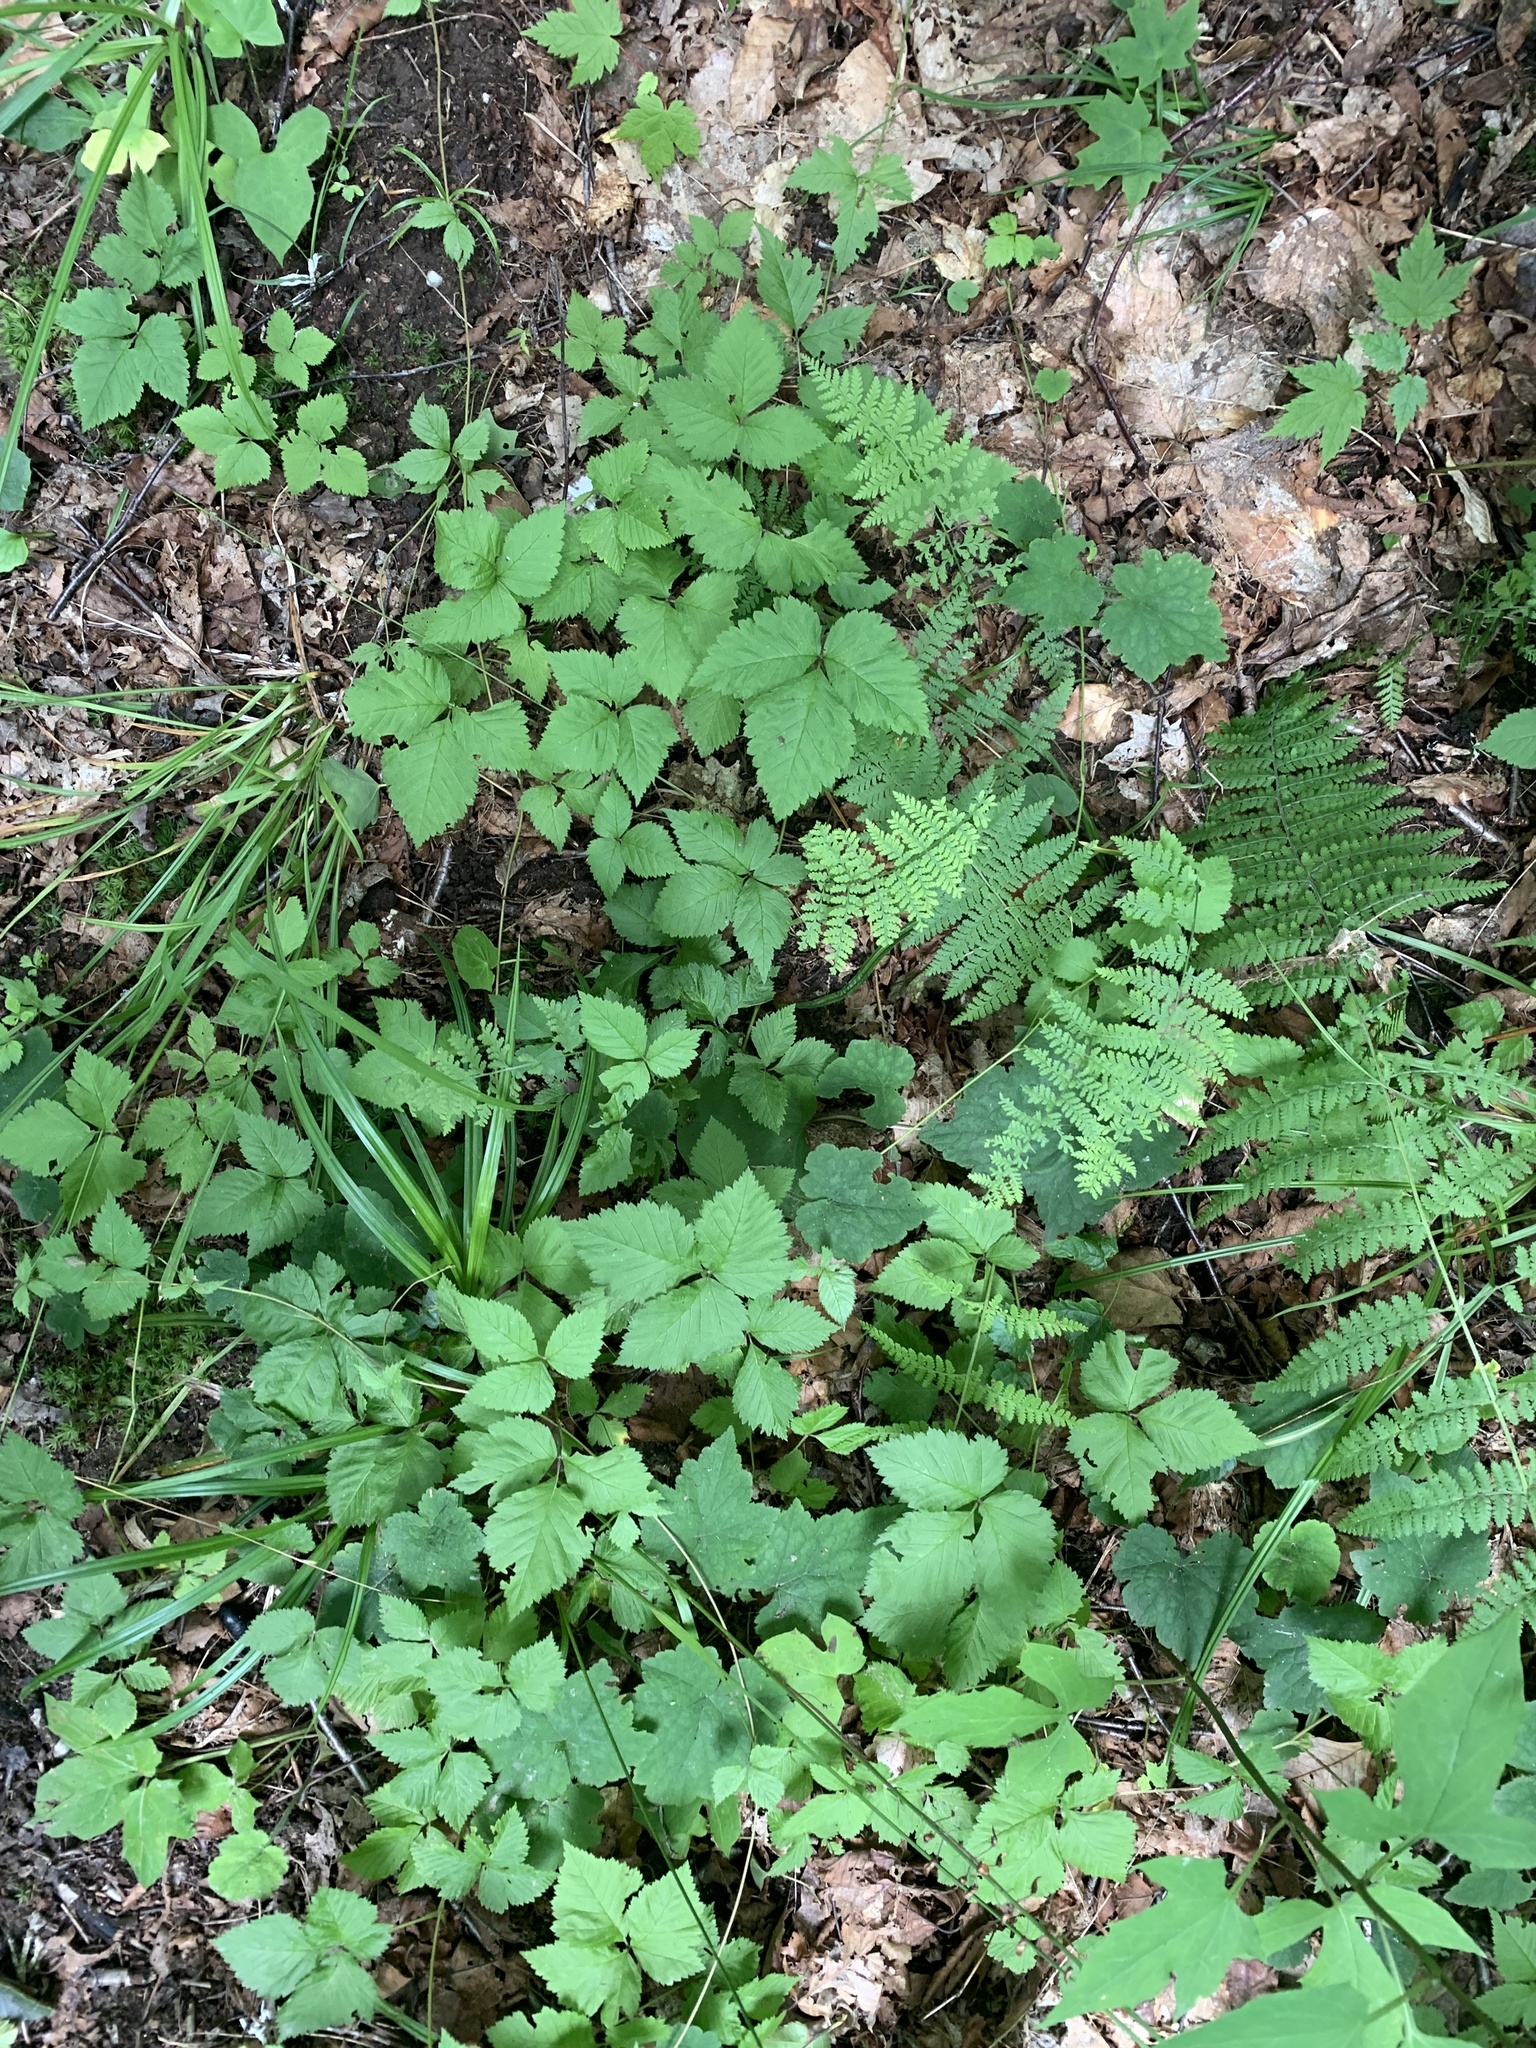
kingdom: Plantae
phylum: Tracheophyta
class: Magnoliopsida
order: Rosales
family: Rosaceae
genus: Rubus
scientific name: Rubus pubescens
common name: Dwarf raspberry
